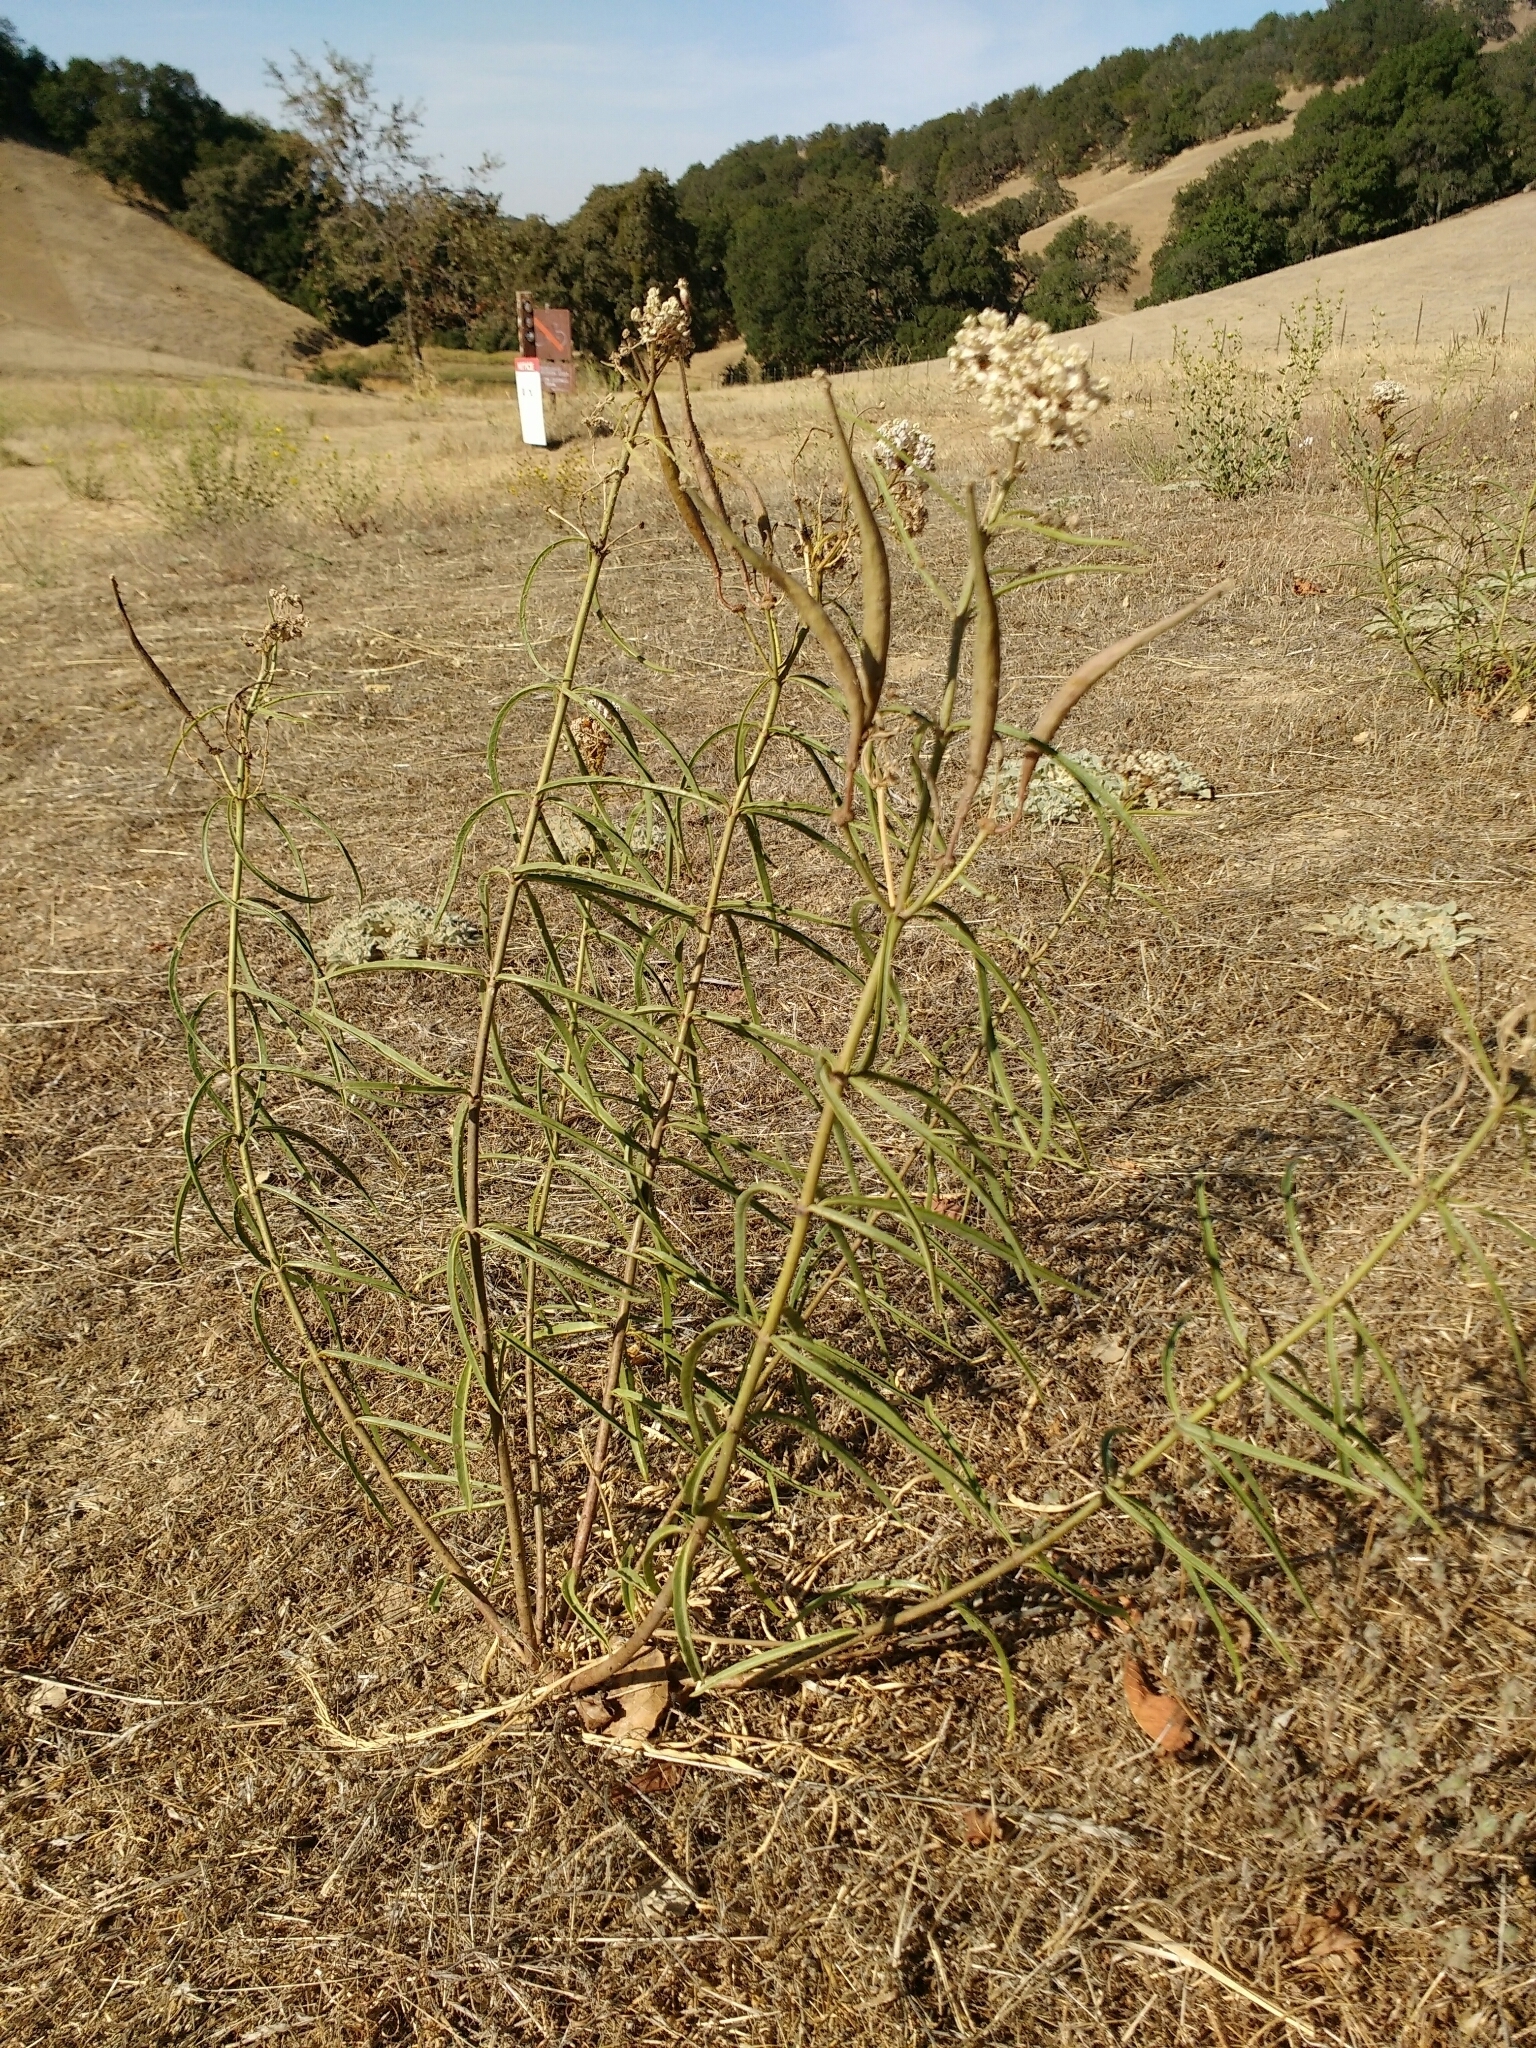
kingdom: Plantae
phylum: Tracheophyta
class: Magnoliopsida
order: Gentianales
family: Apocynaceae
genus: Asclepias
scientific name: Asclepias fascicularis
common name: Mexican milkweed
